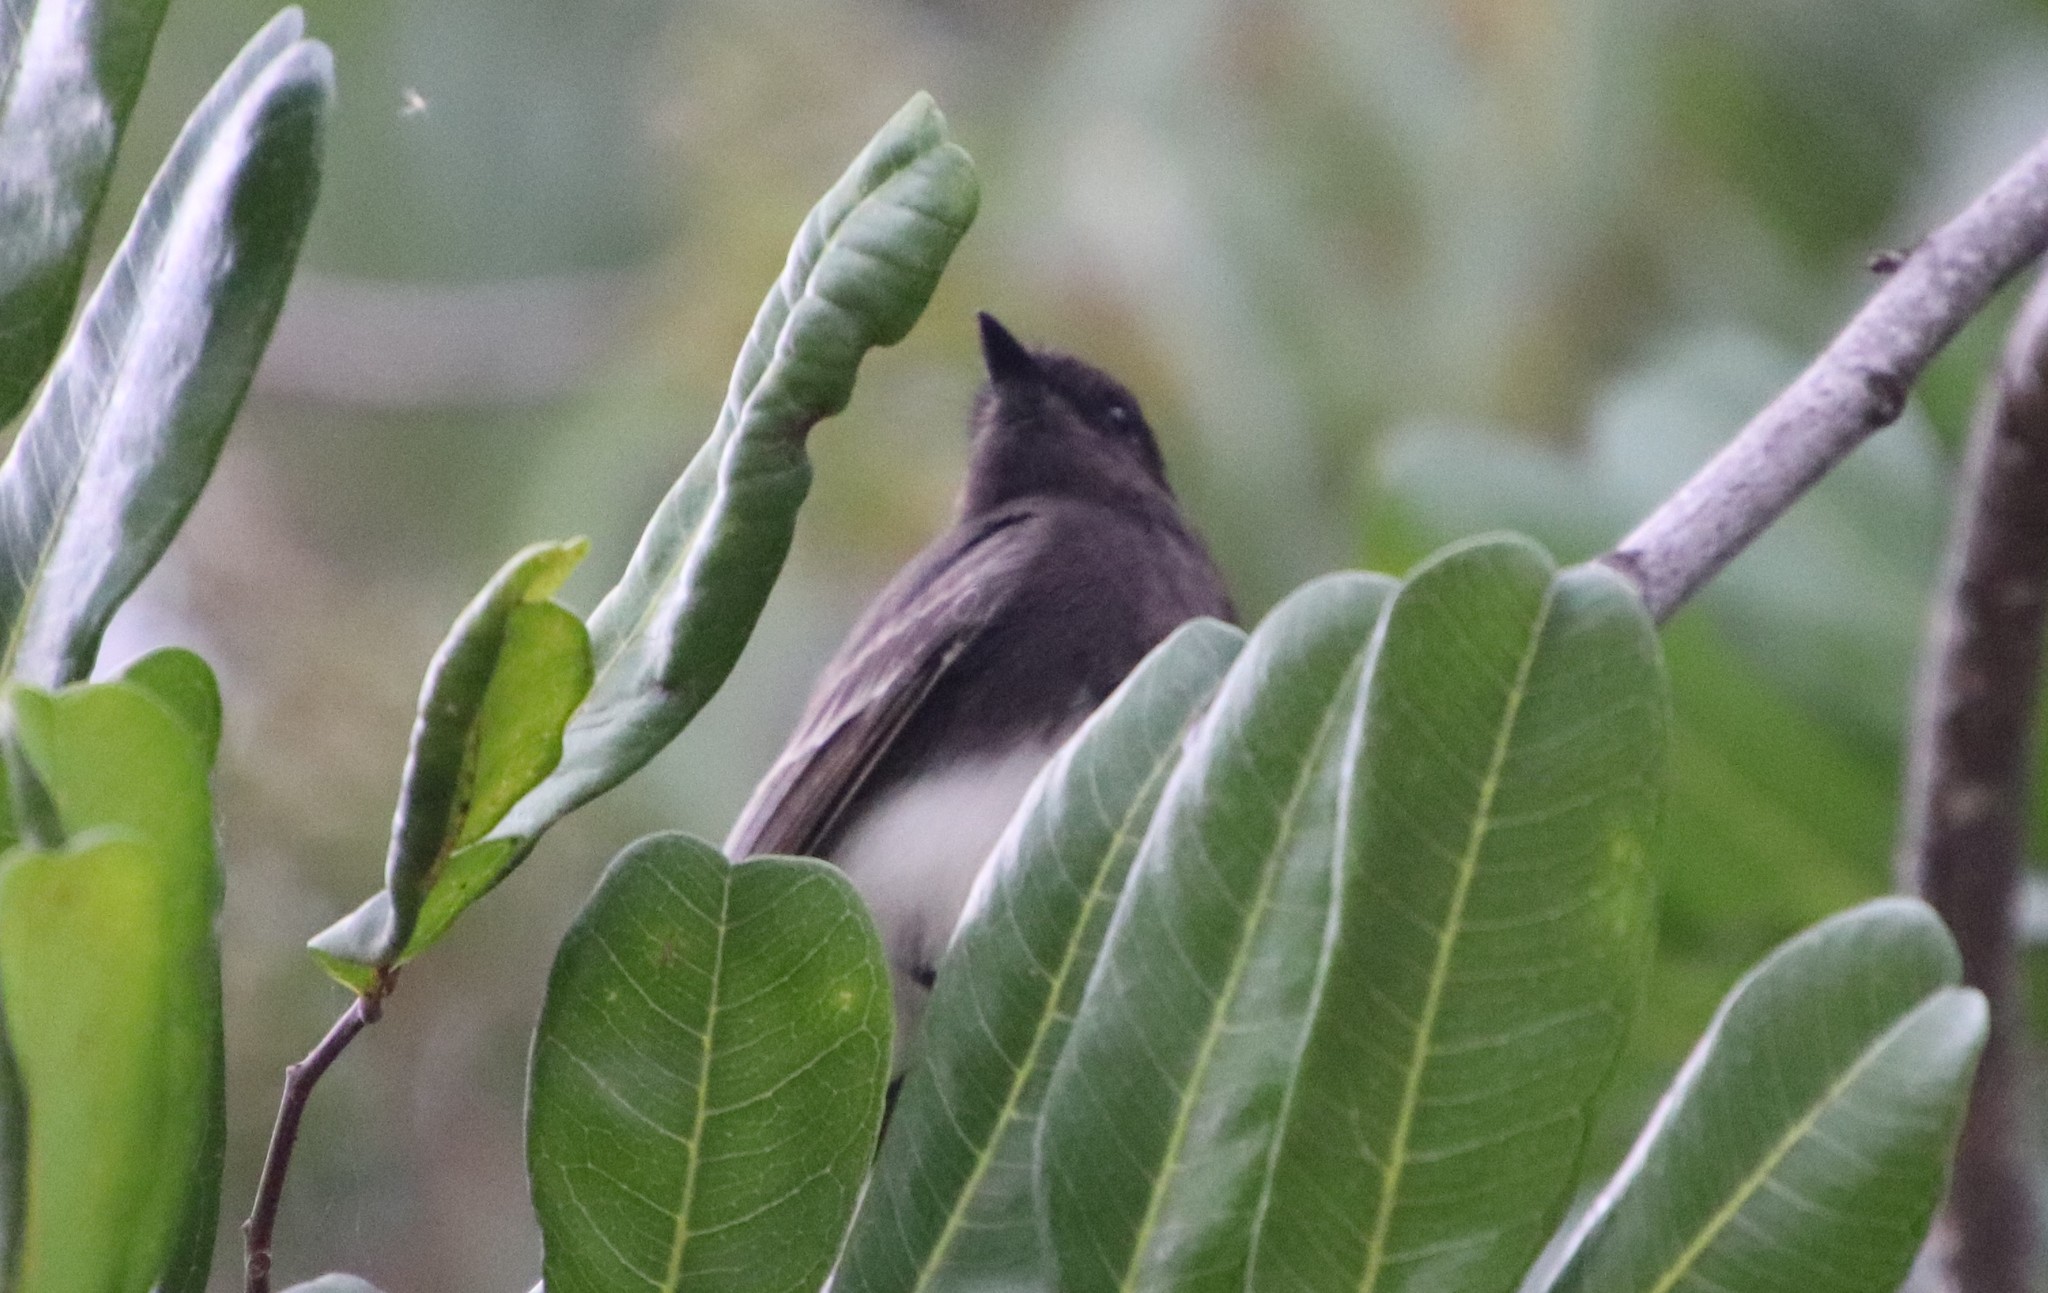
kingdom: Animalia
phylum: Chordata
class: Aves
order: Passeriformes
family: Tyrannidae
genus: Sayornis
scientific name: Sayornis nigricans
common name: Black phoebe
